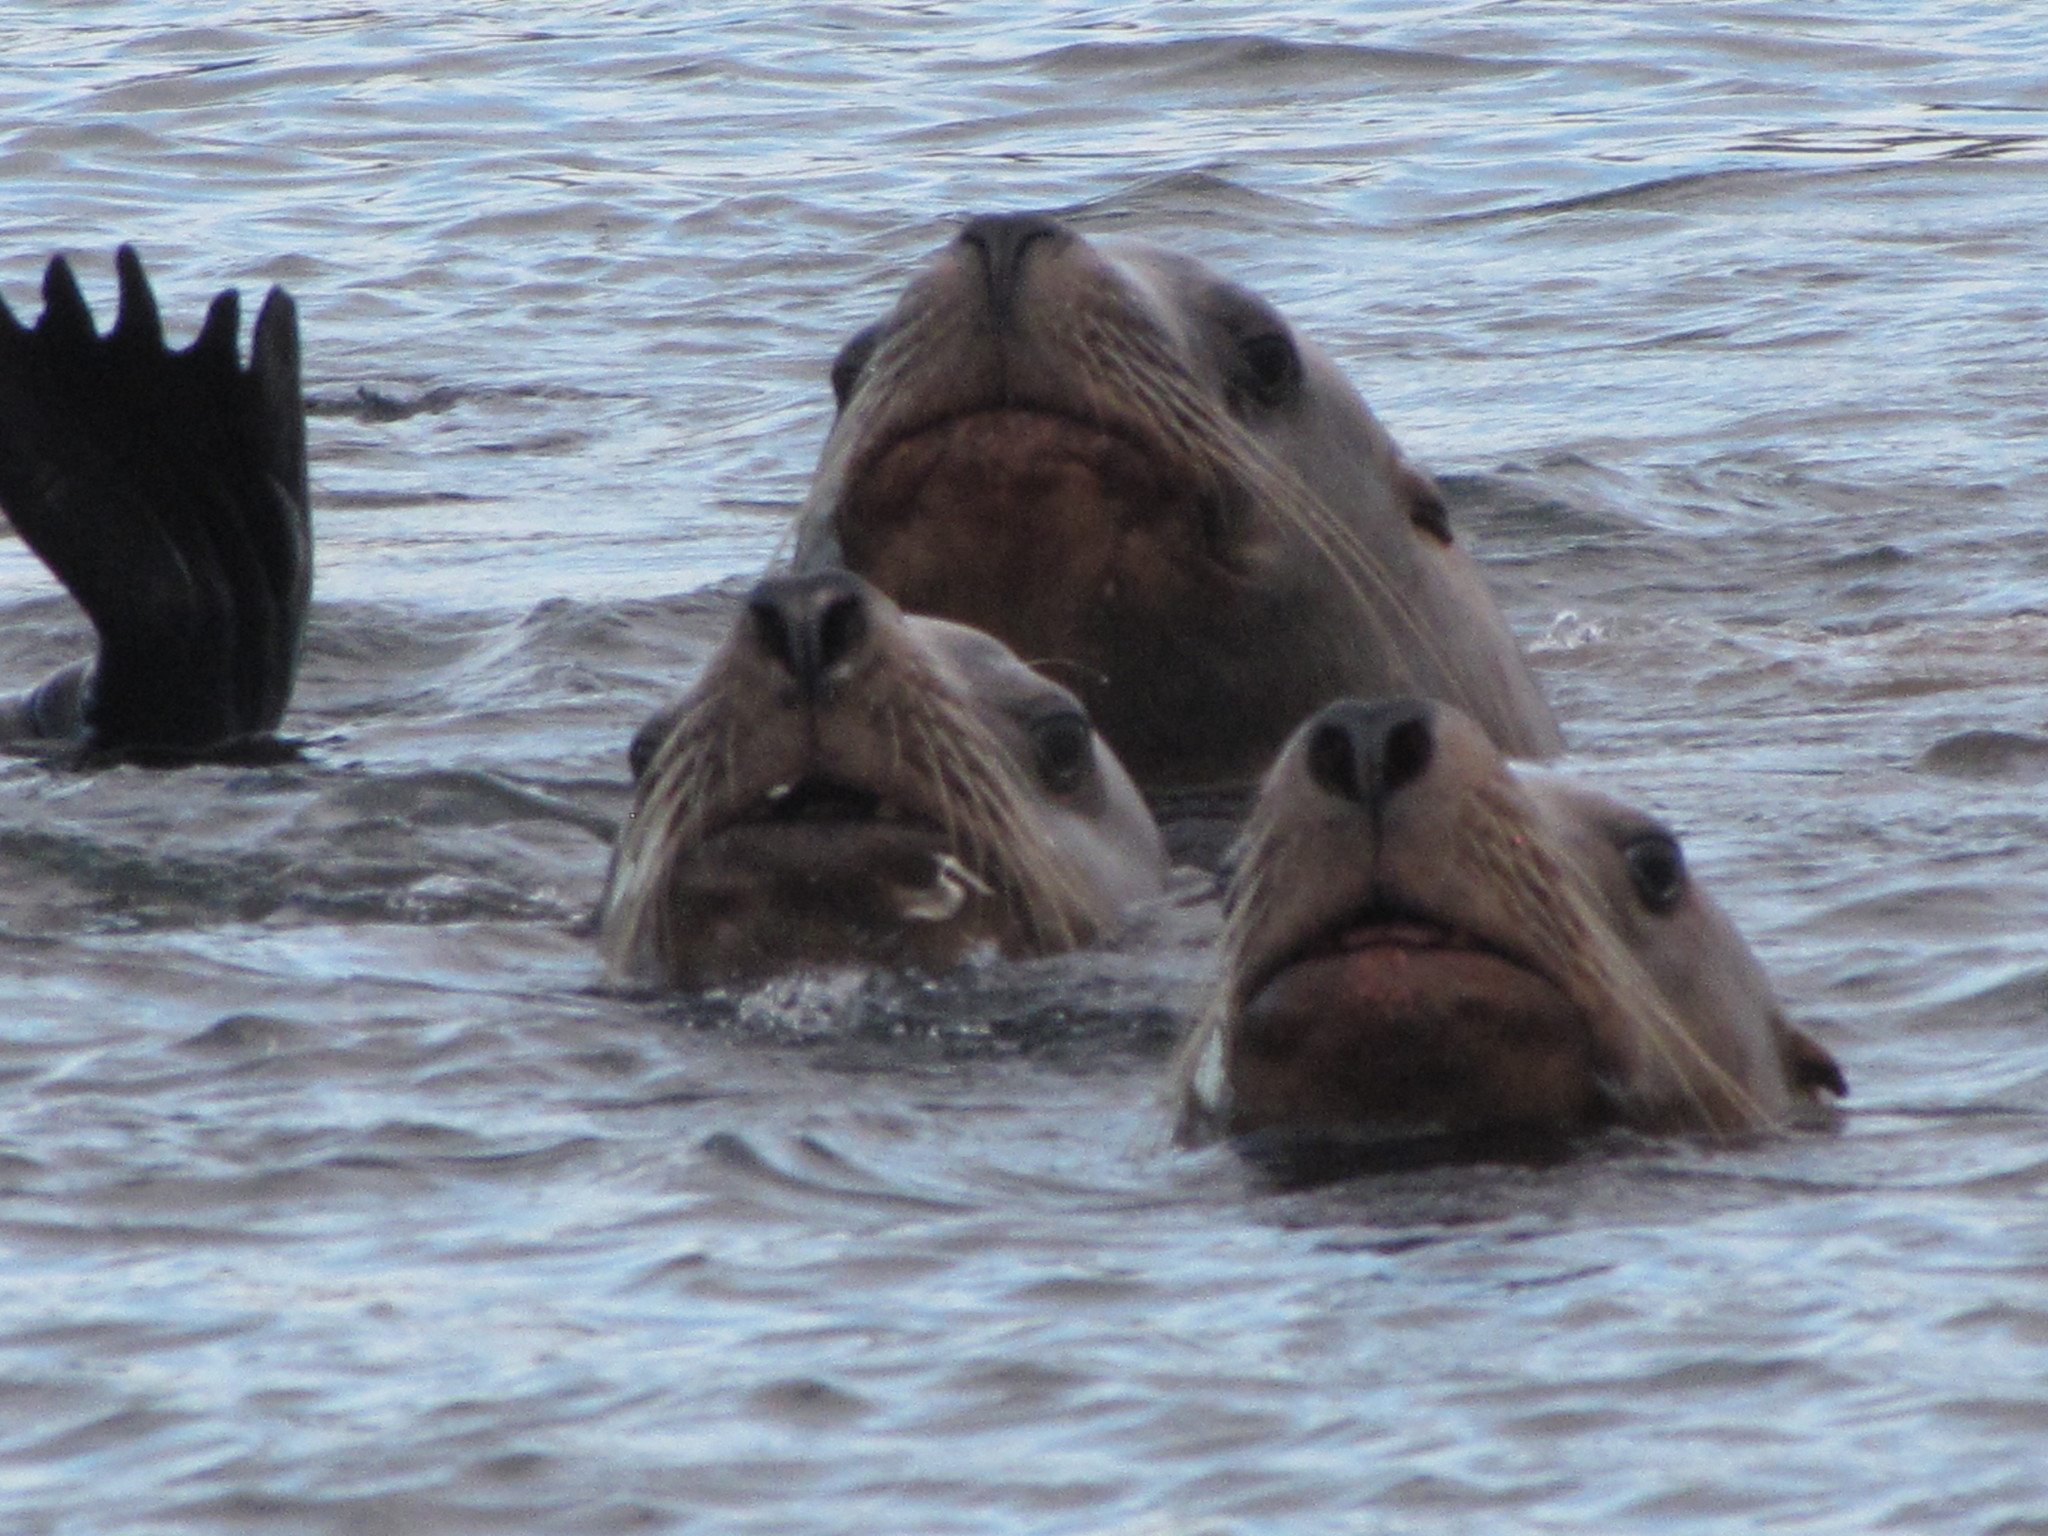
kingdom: Animalia
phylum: Chordata
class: Mammalia
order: Carnivora
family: Otariidae
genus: Eumetopias
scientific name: Eumetopias jubatus
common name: Steller sea lion
